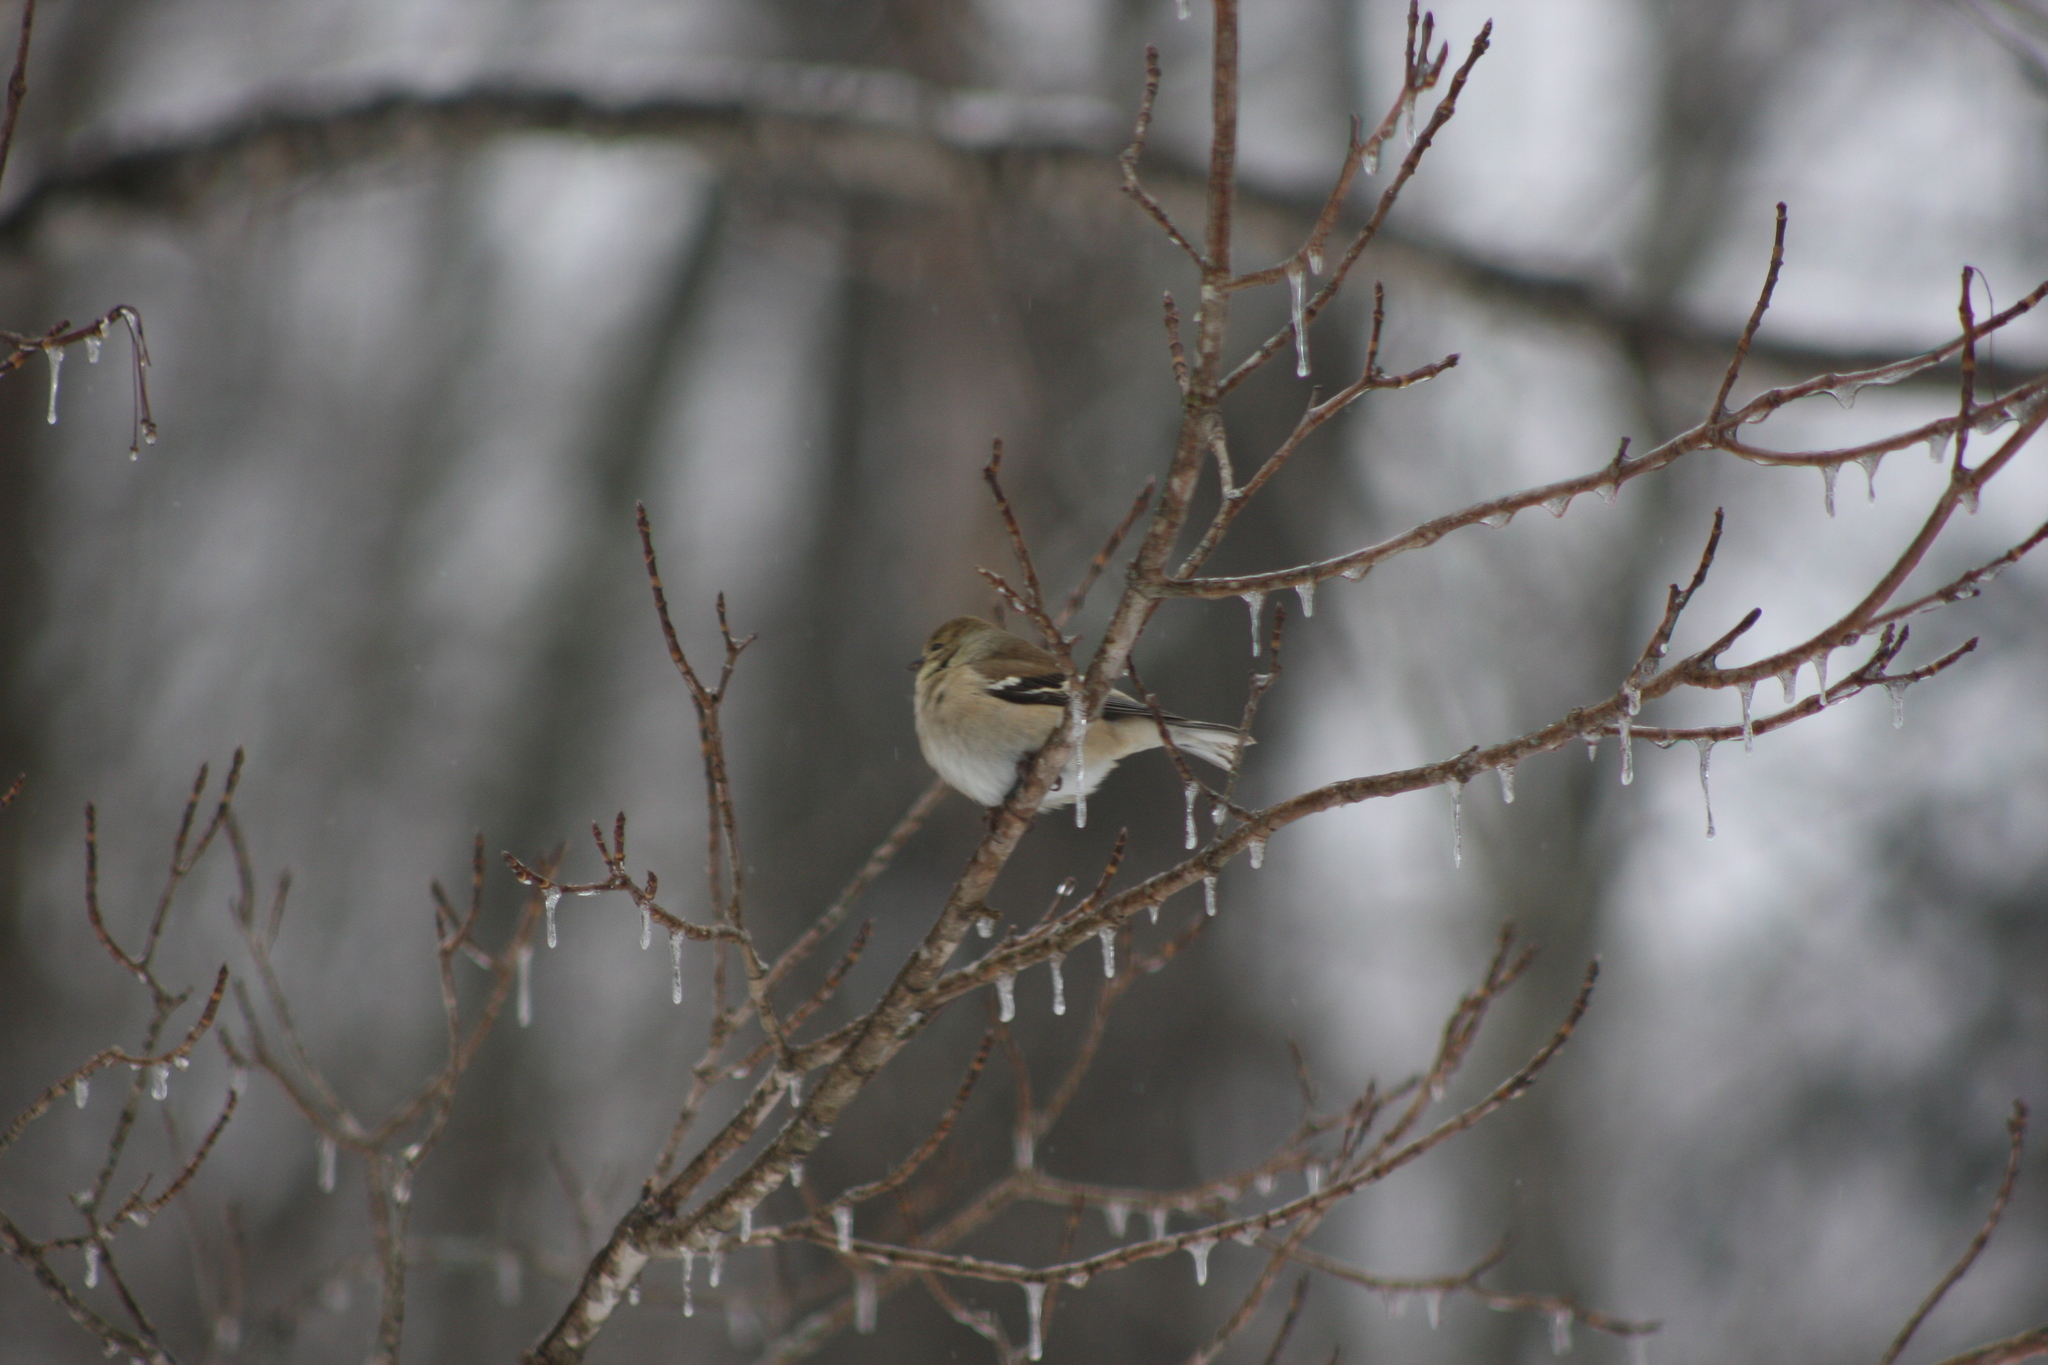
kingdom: Animalia
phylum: Chordata
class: Aves
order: Passeriformes
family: Fringillidae
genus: Spinus
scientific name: Spinus tristis
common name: American goldfinch
